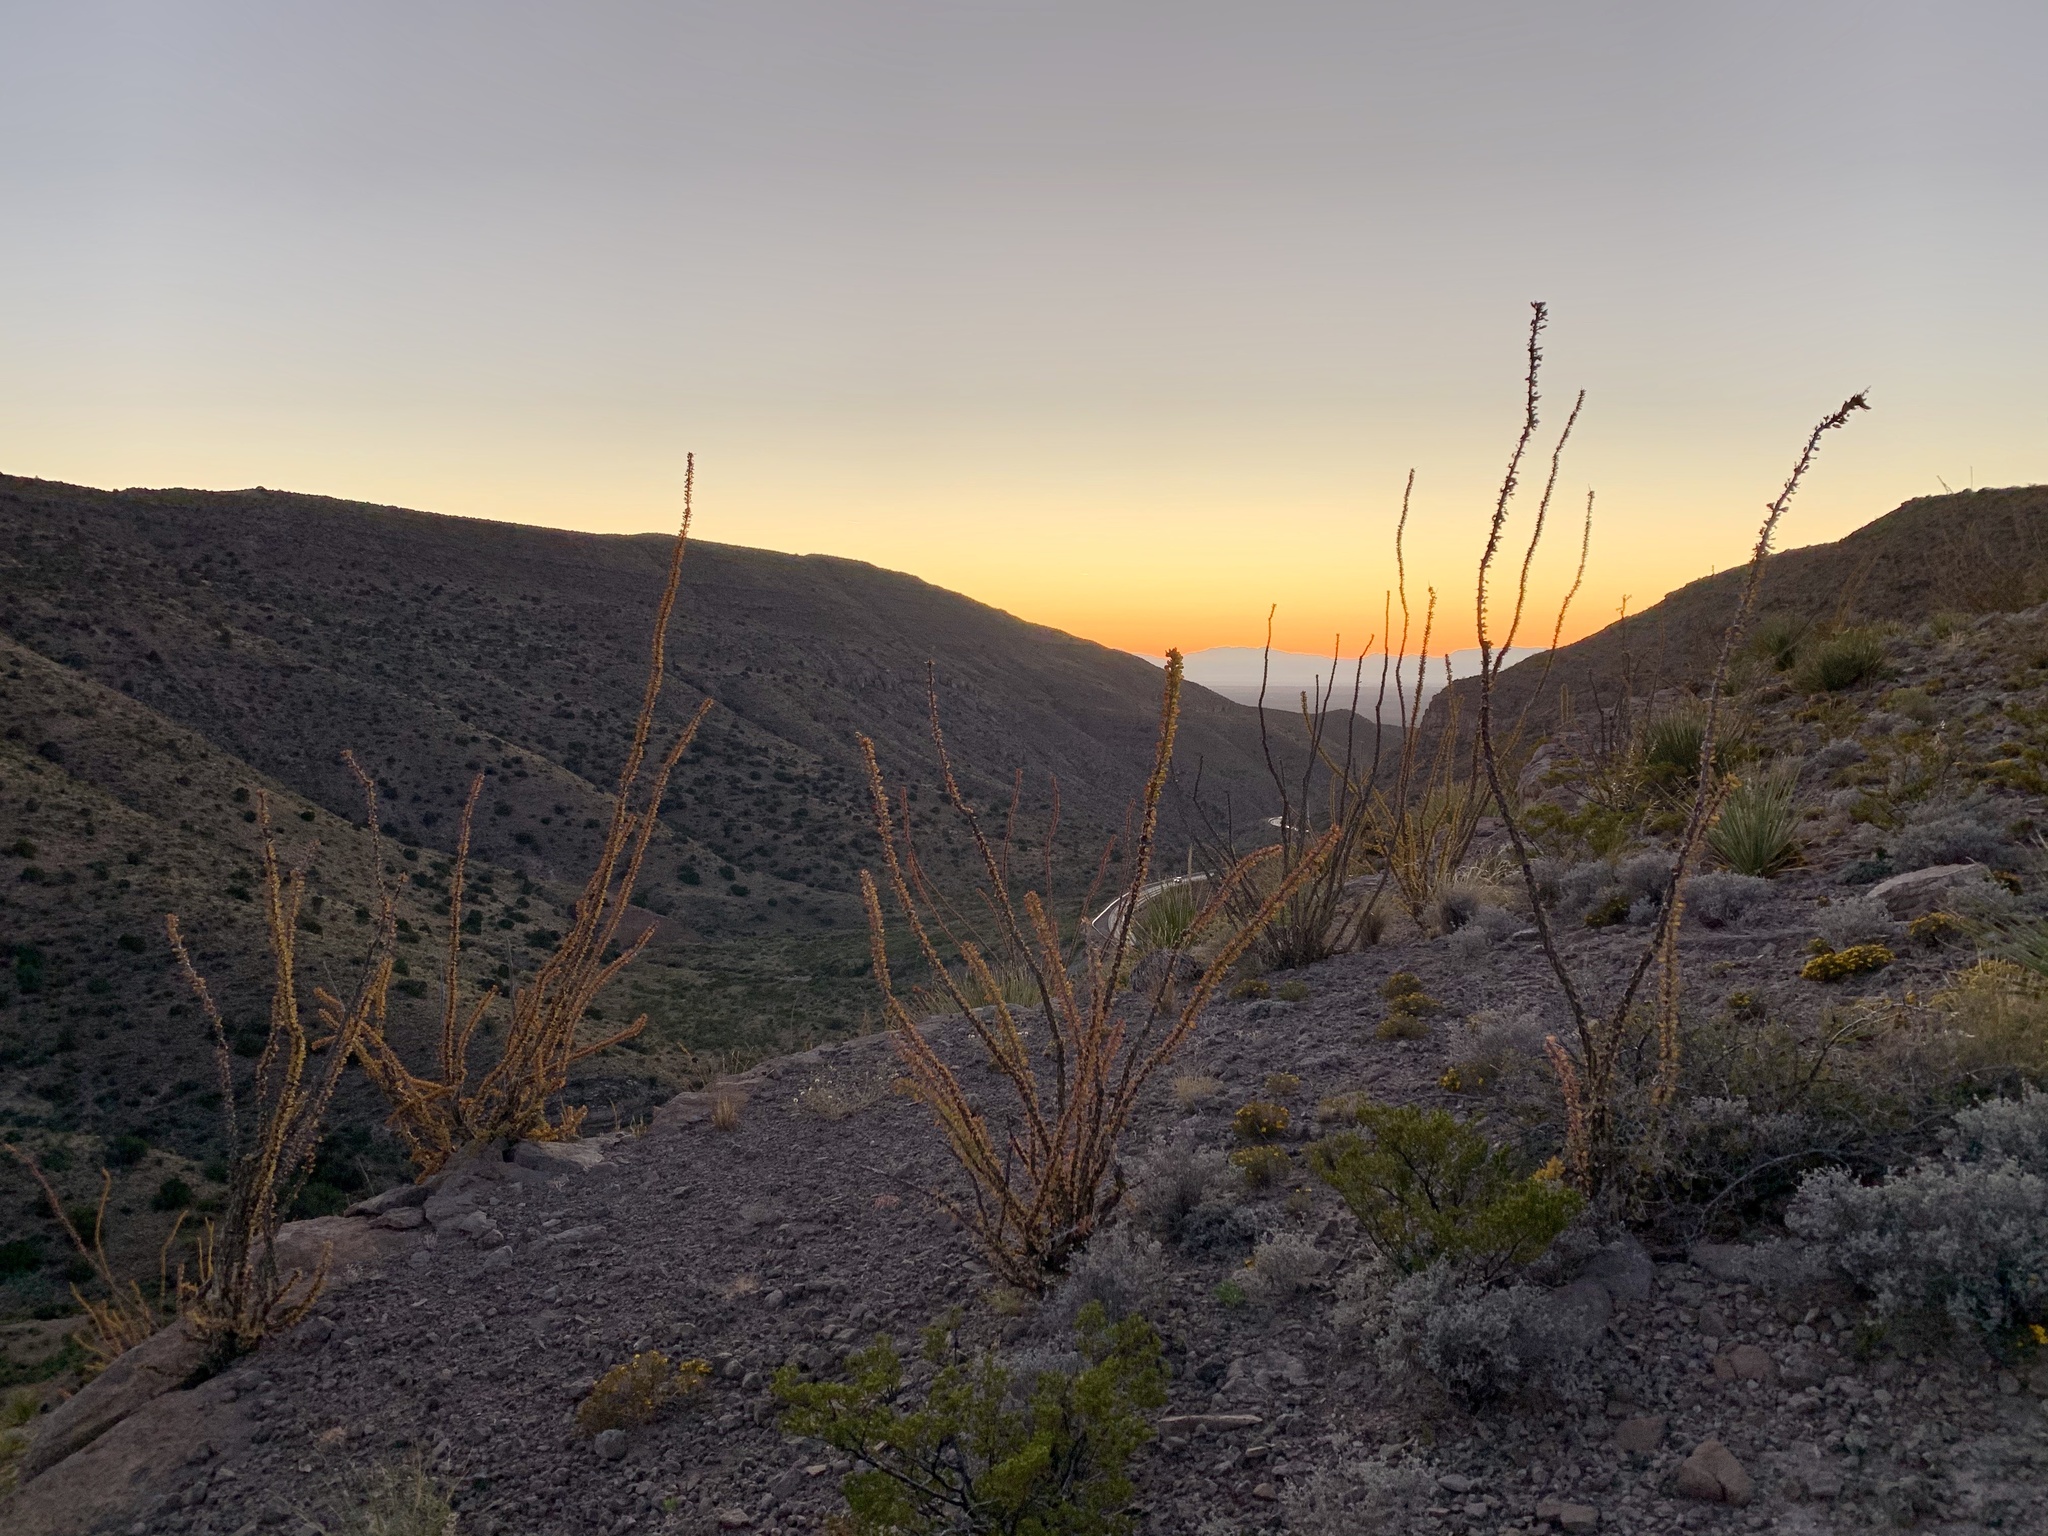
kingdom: Plantae
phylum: Tracheophyta
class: Magnoliopsida
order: Ericales
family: Fouquieriaceae
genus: Fouquieria
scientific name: Fouquieria splendens
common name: Vine-cactus
